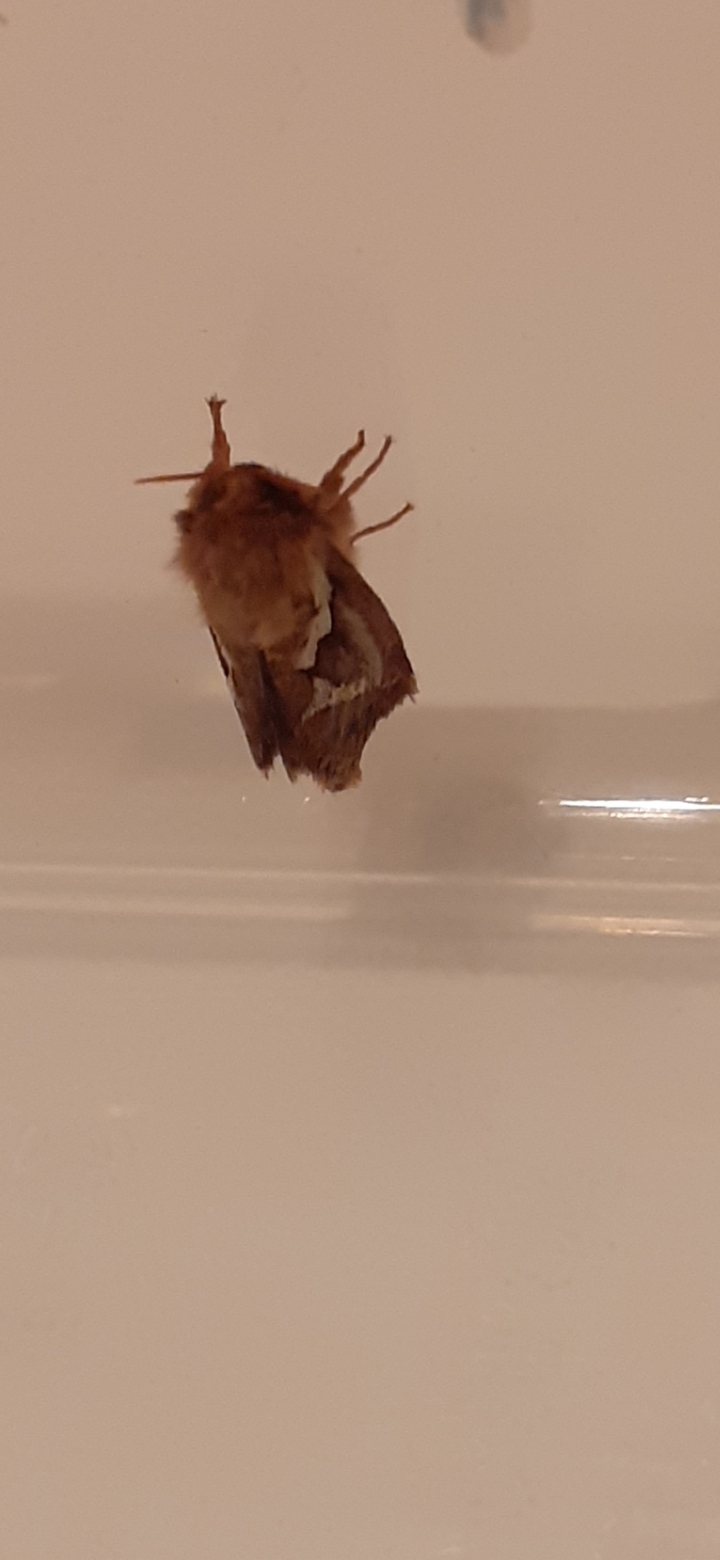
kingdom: Animalia
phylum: Arthropoda
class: Insecta
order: Lepidoptera
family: Hepialidae
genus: Korscheltellus
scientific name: Korscheltellus lupulina
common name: Common swift
